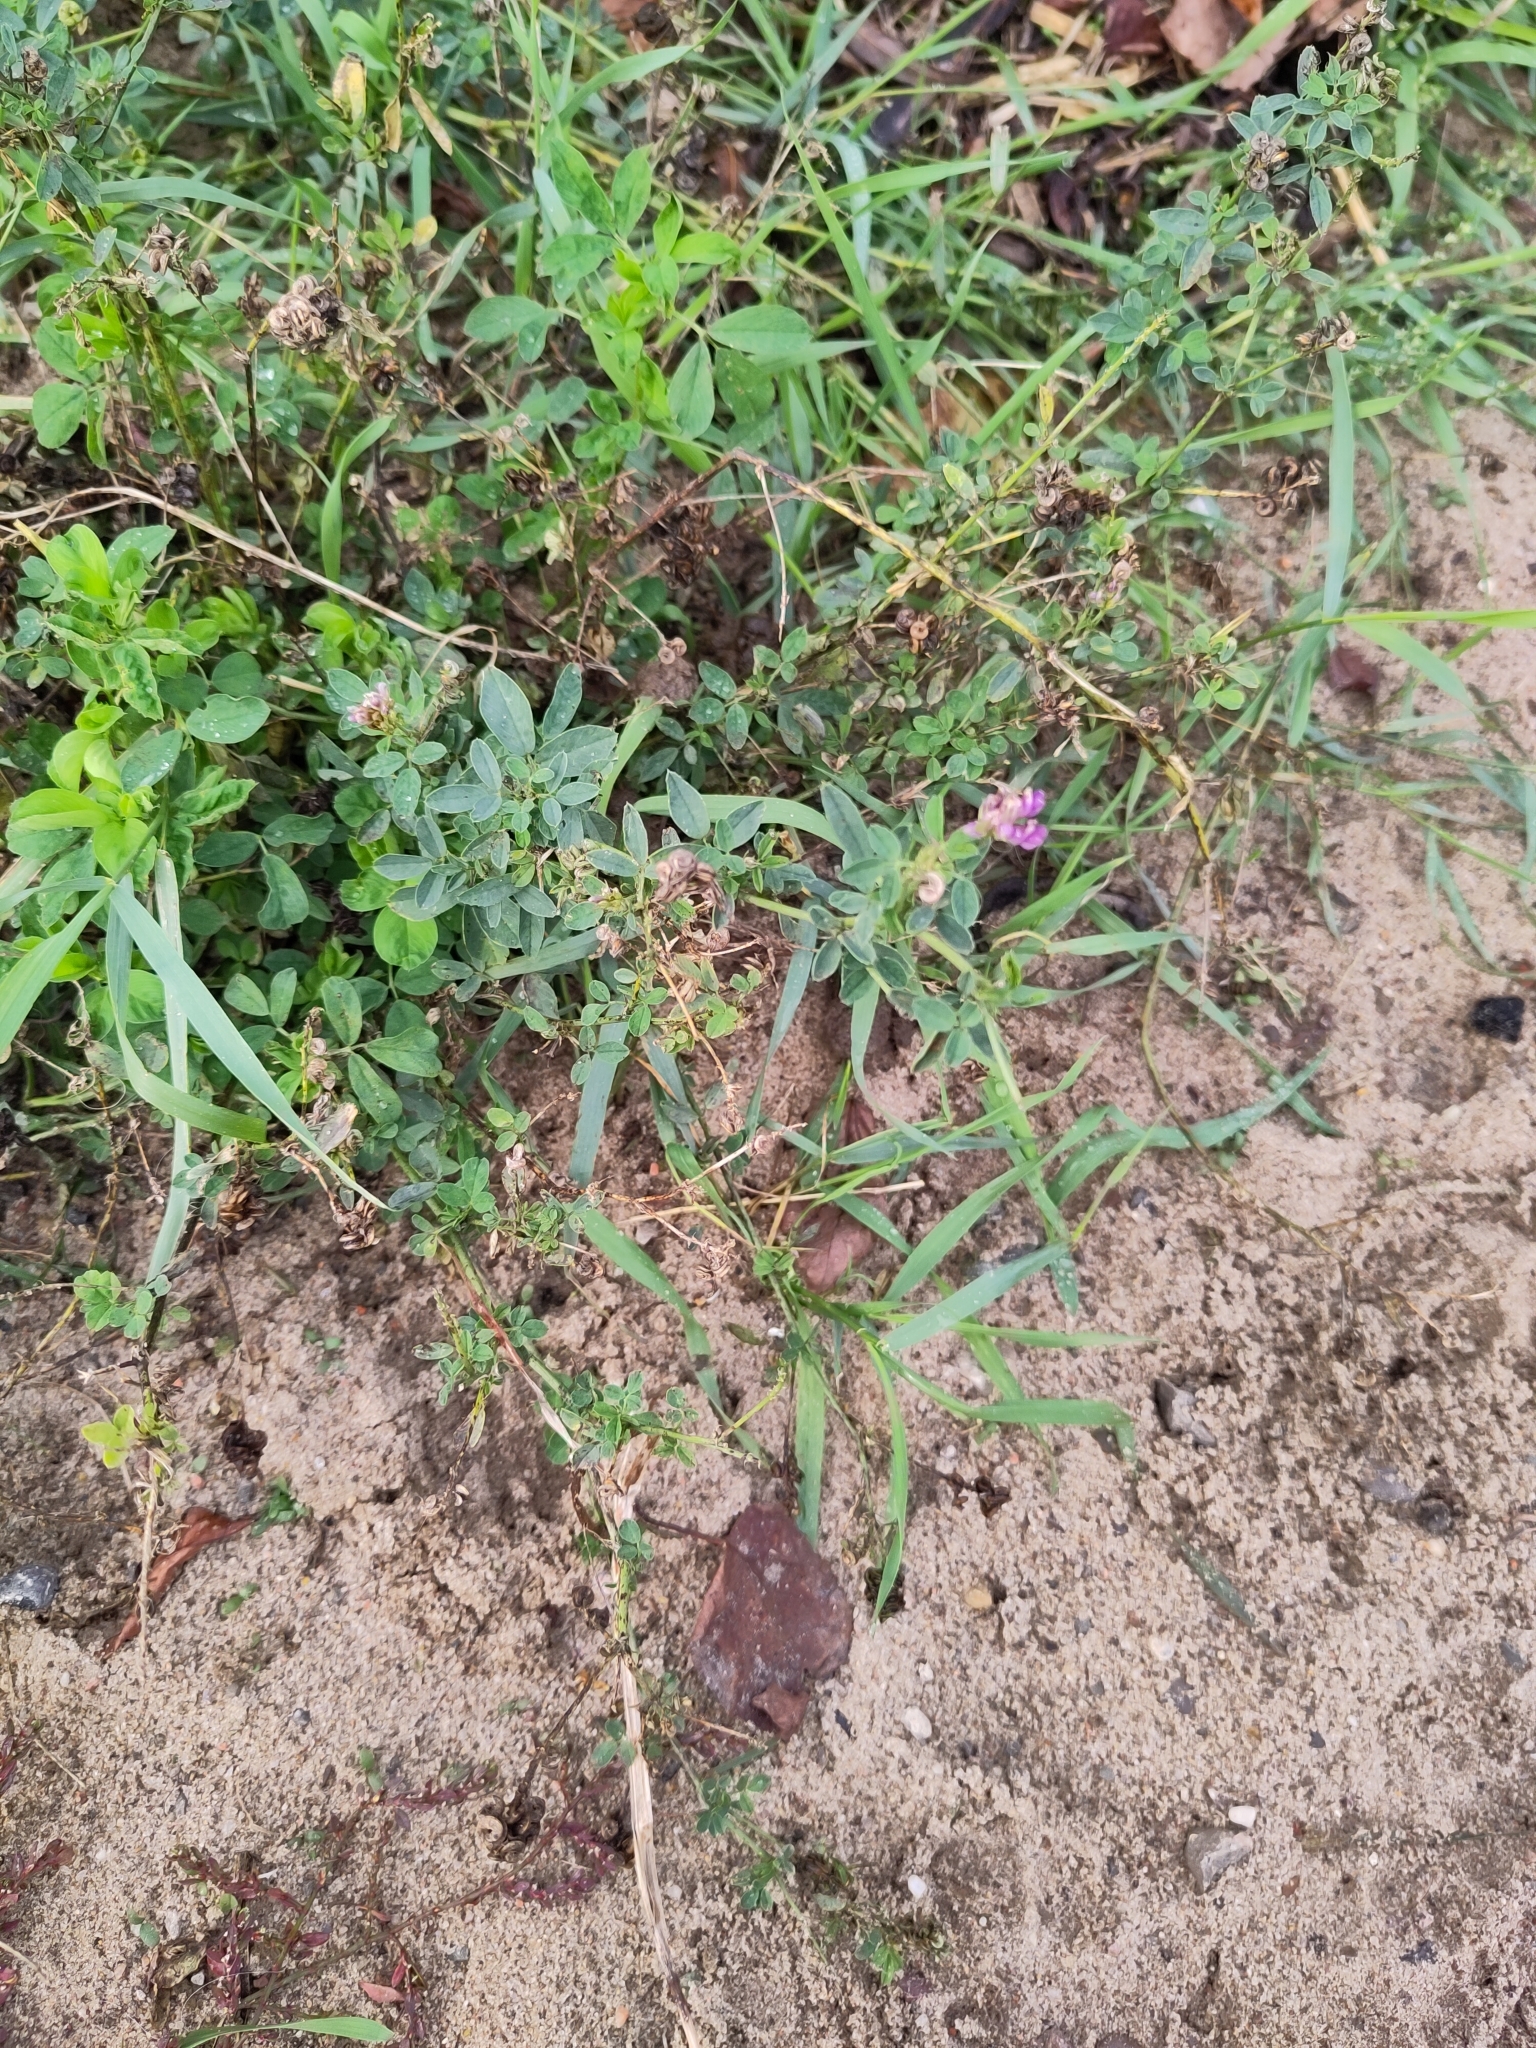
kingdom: Plantae
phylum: Tracheophyta
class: Magnoliopsida
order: Fabales
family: Fabaceae
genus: Medicago
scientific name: Medicago varia
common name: Sand lucerne
